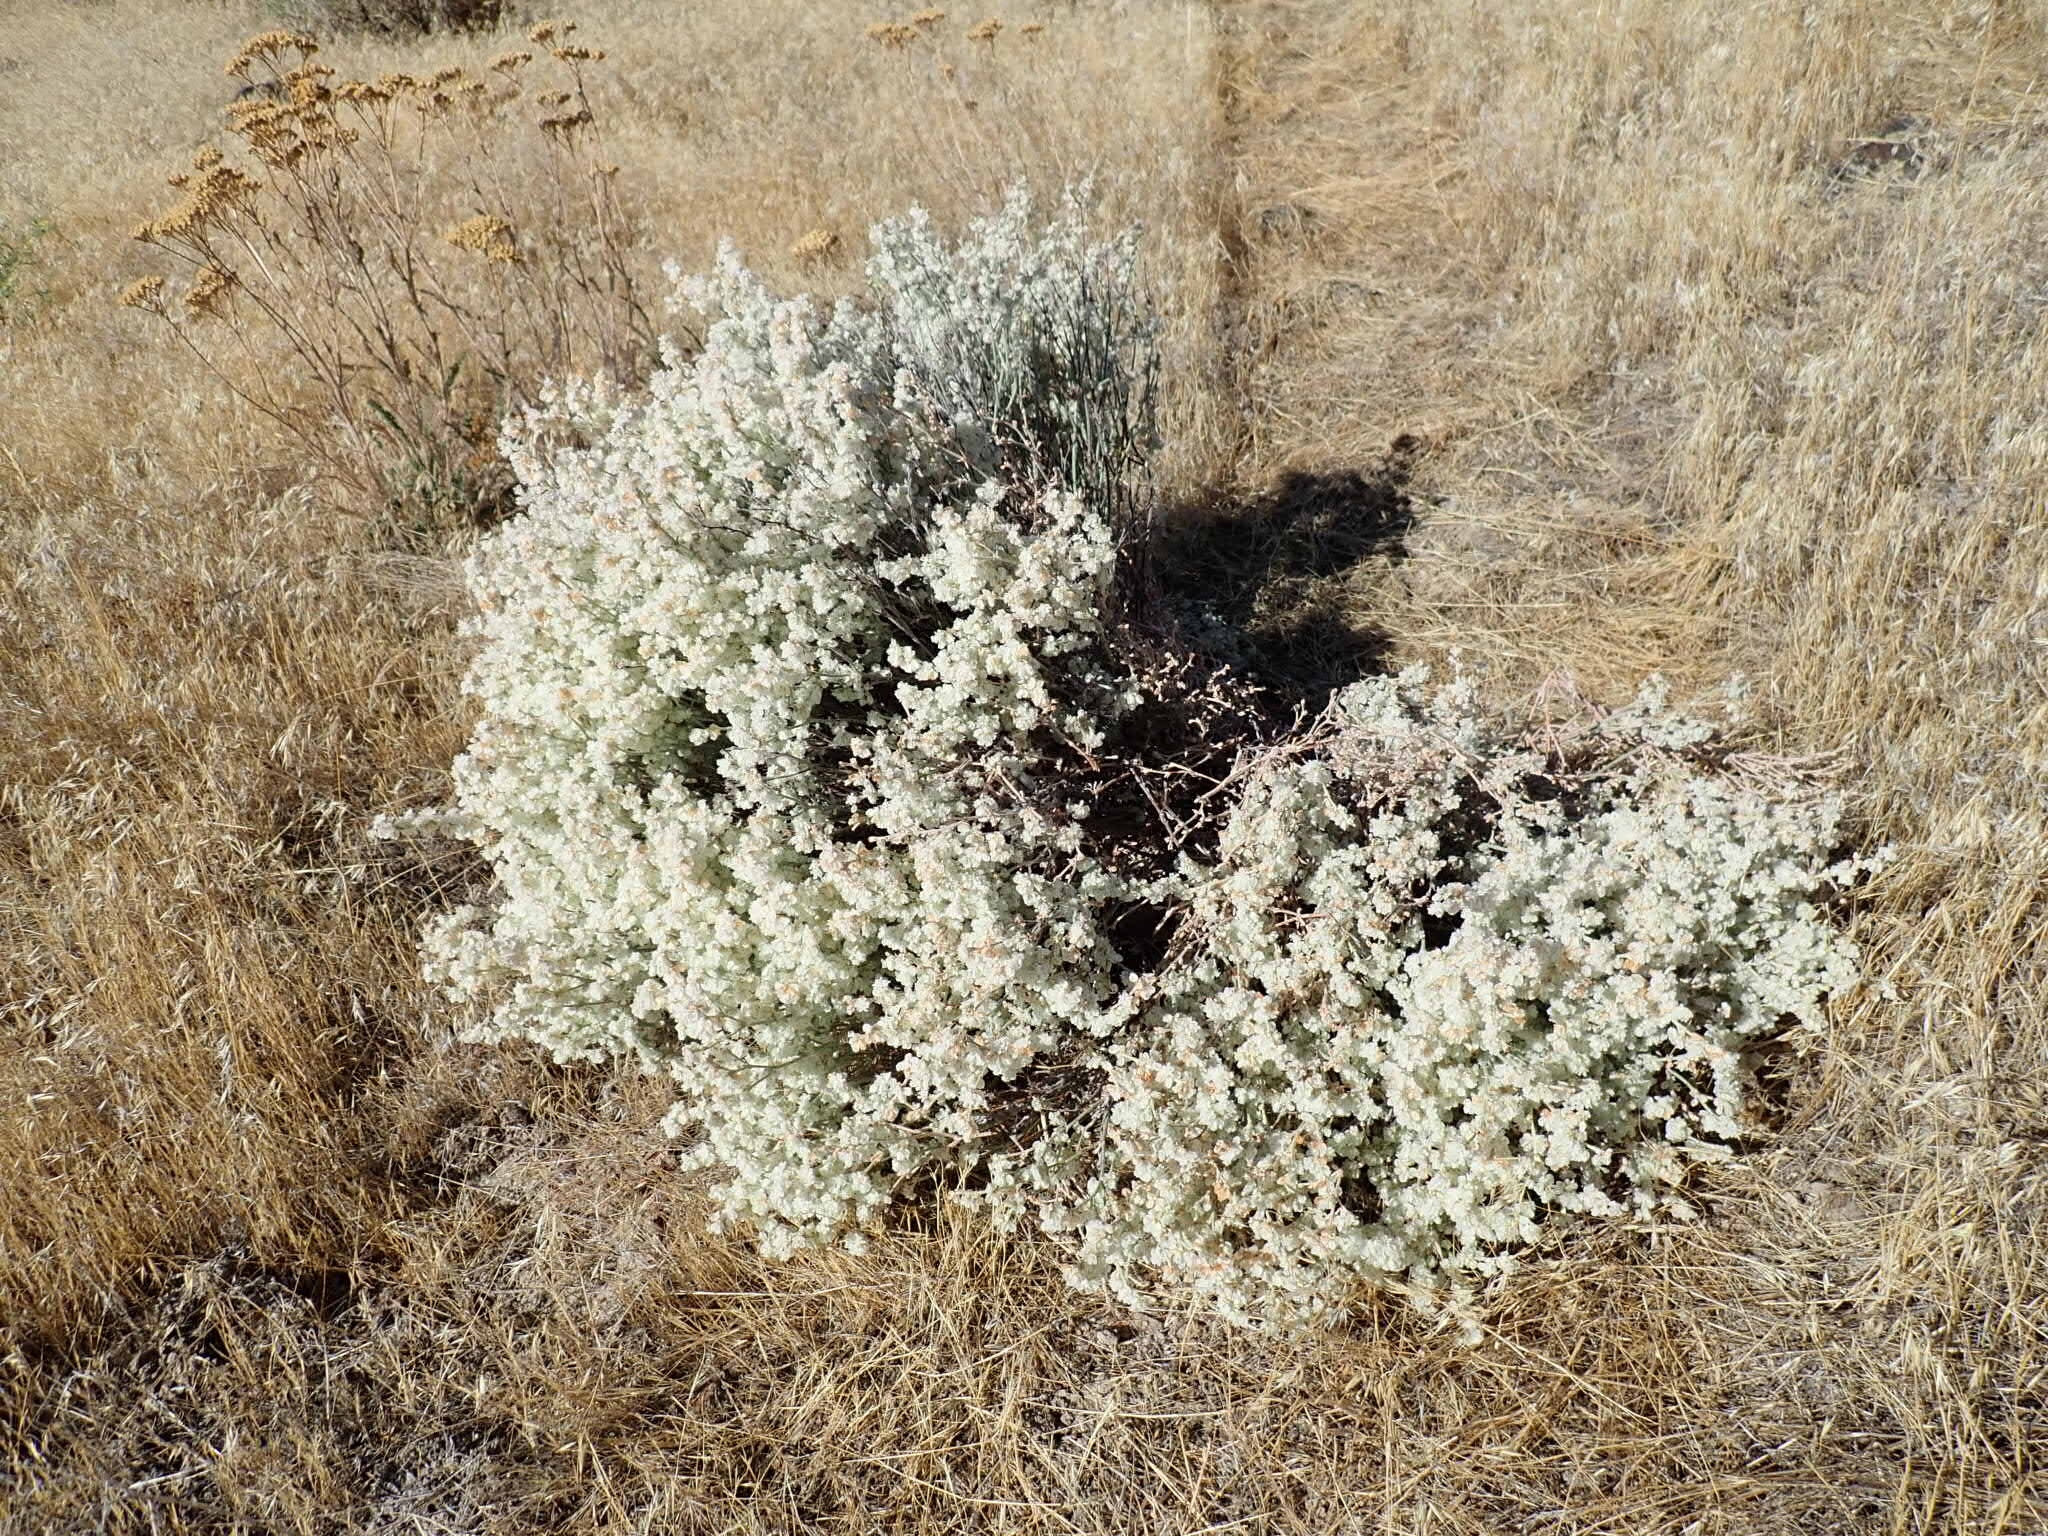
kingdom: Plantae
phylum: Tracheophyta
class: Magnoliopsida
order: Caryophyllales
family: Polygonaceae
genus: Eriogonum
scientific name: Eriogonum niveum
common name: Snow wild buckwheat
